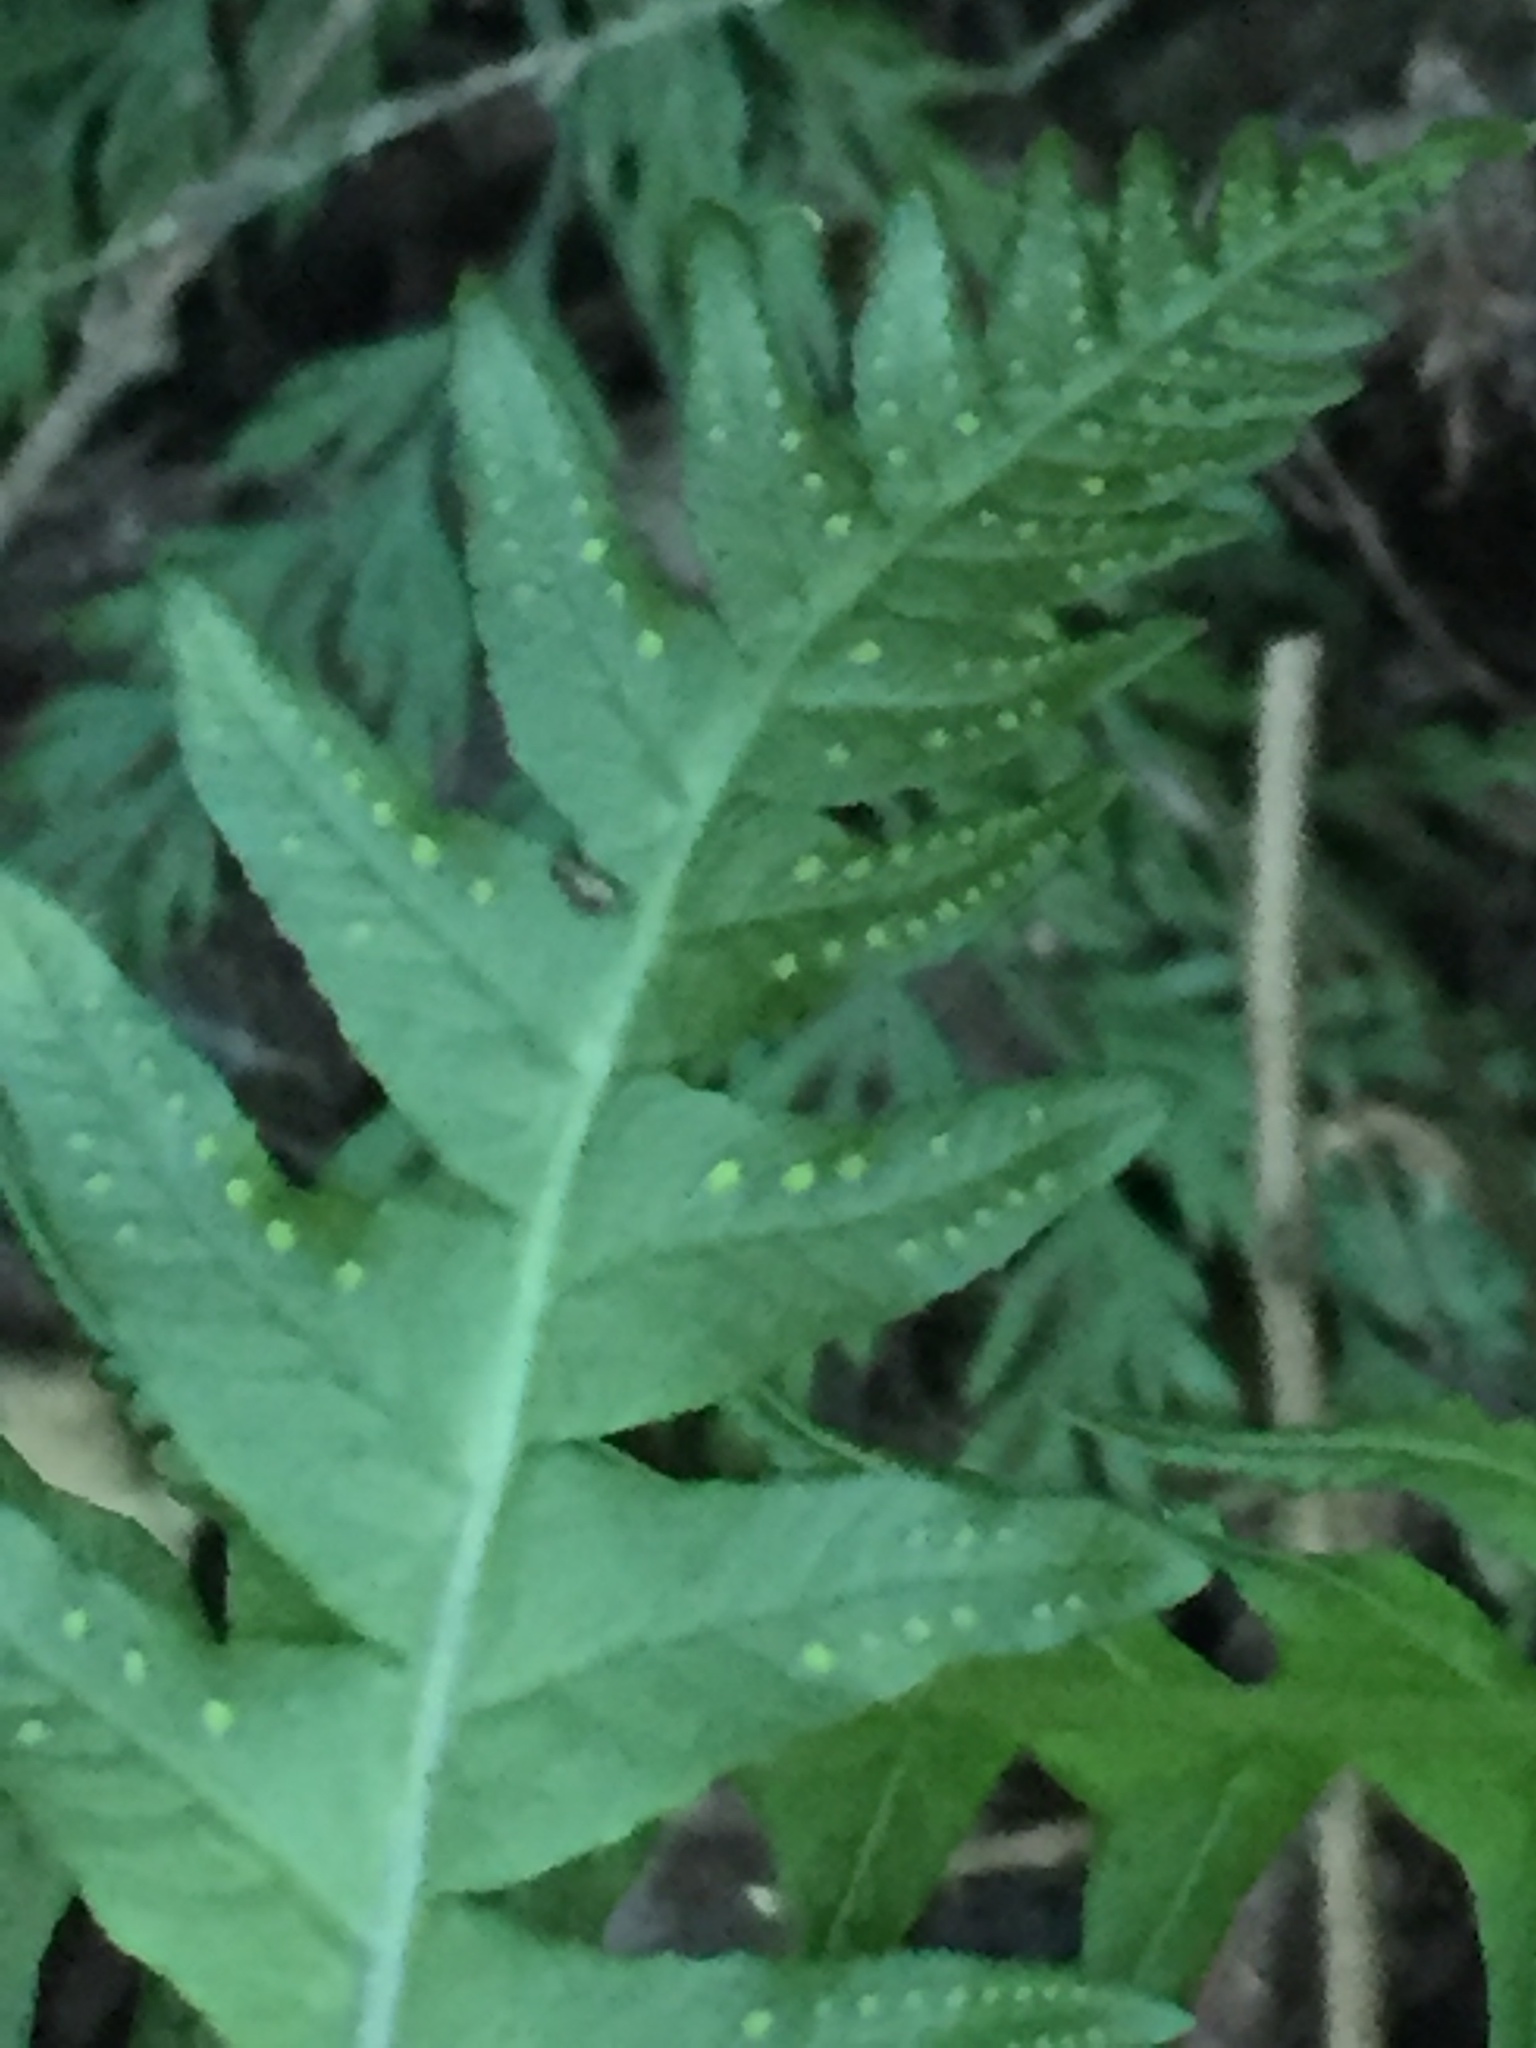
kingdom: Plantae
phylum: Tracheophyta
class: Polypodiopsida
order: Polypodiales
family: Polypodiaceae
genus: Polypodium
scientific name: Polypodium vulgare
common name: Common polypody
